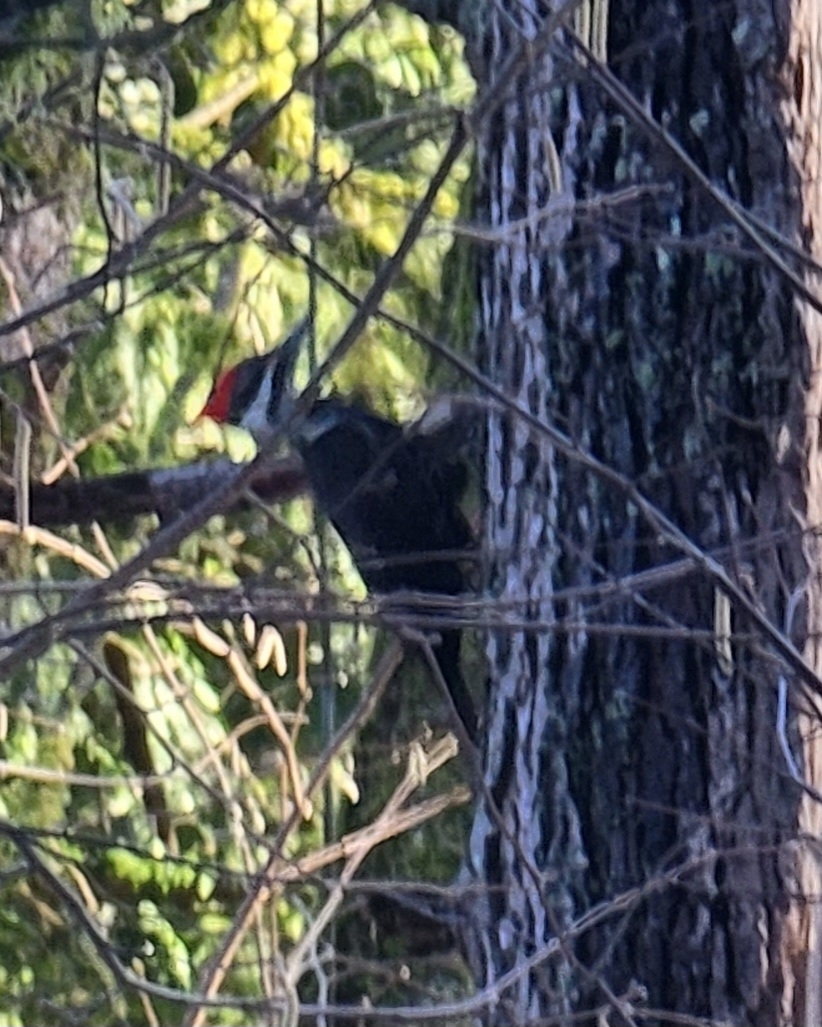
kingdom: Animalia
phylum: Chordata
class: Aves
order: Piciformes
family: Picidae
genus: Dryocopus
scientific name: Dryocopus pileatus
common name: Pileated woodpecker
